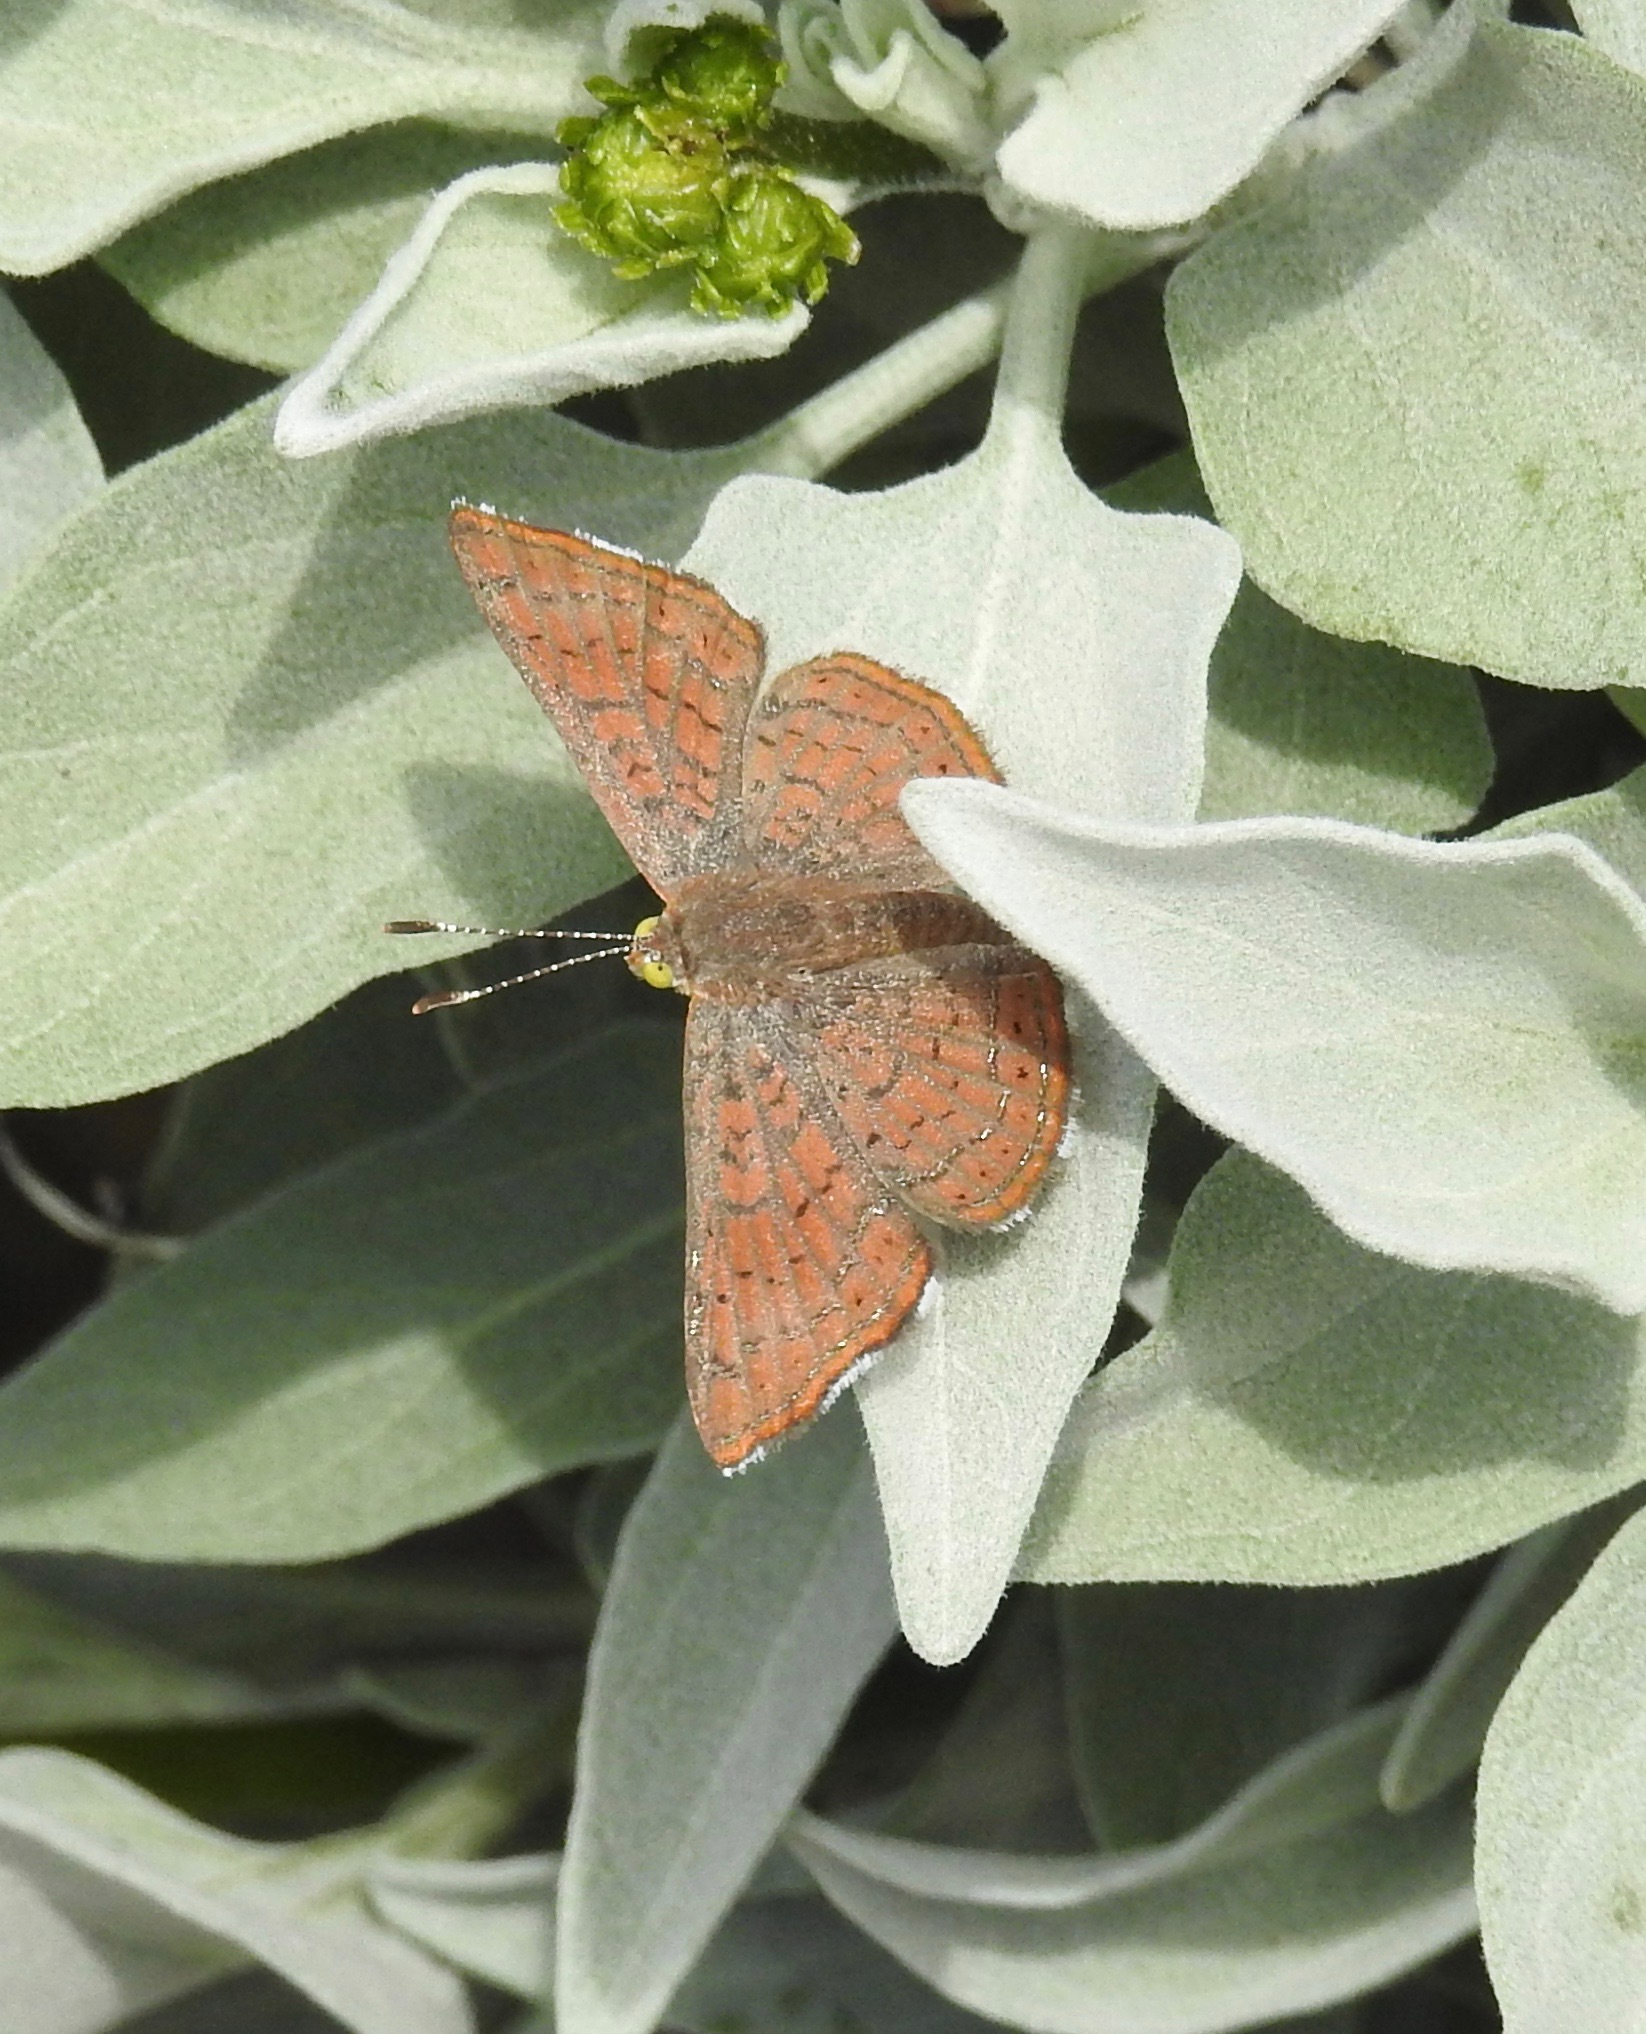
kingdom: Animalia
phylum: Arthropoda
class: Insecta
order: Lepidoptera
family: Lycaenidae
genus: Emesis
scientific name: Emesis wrighti
